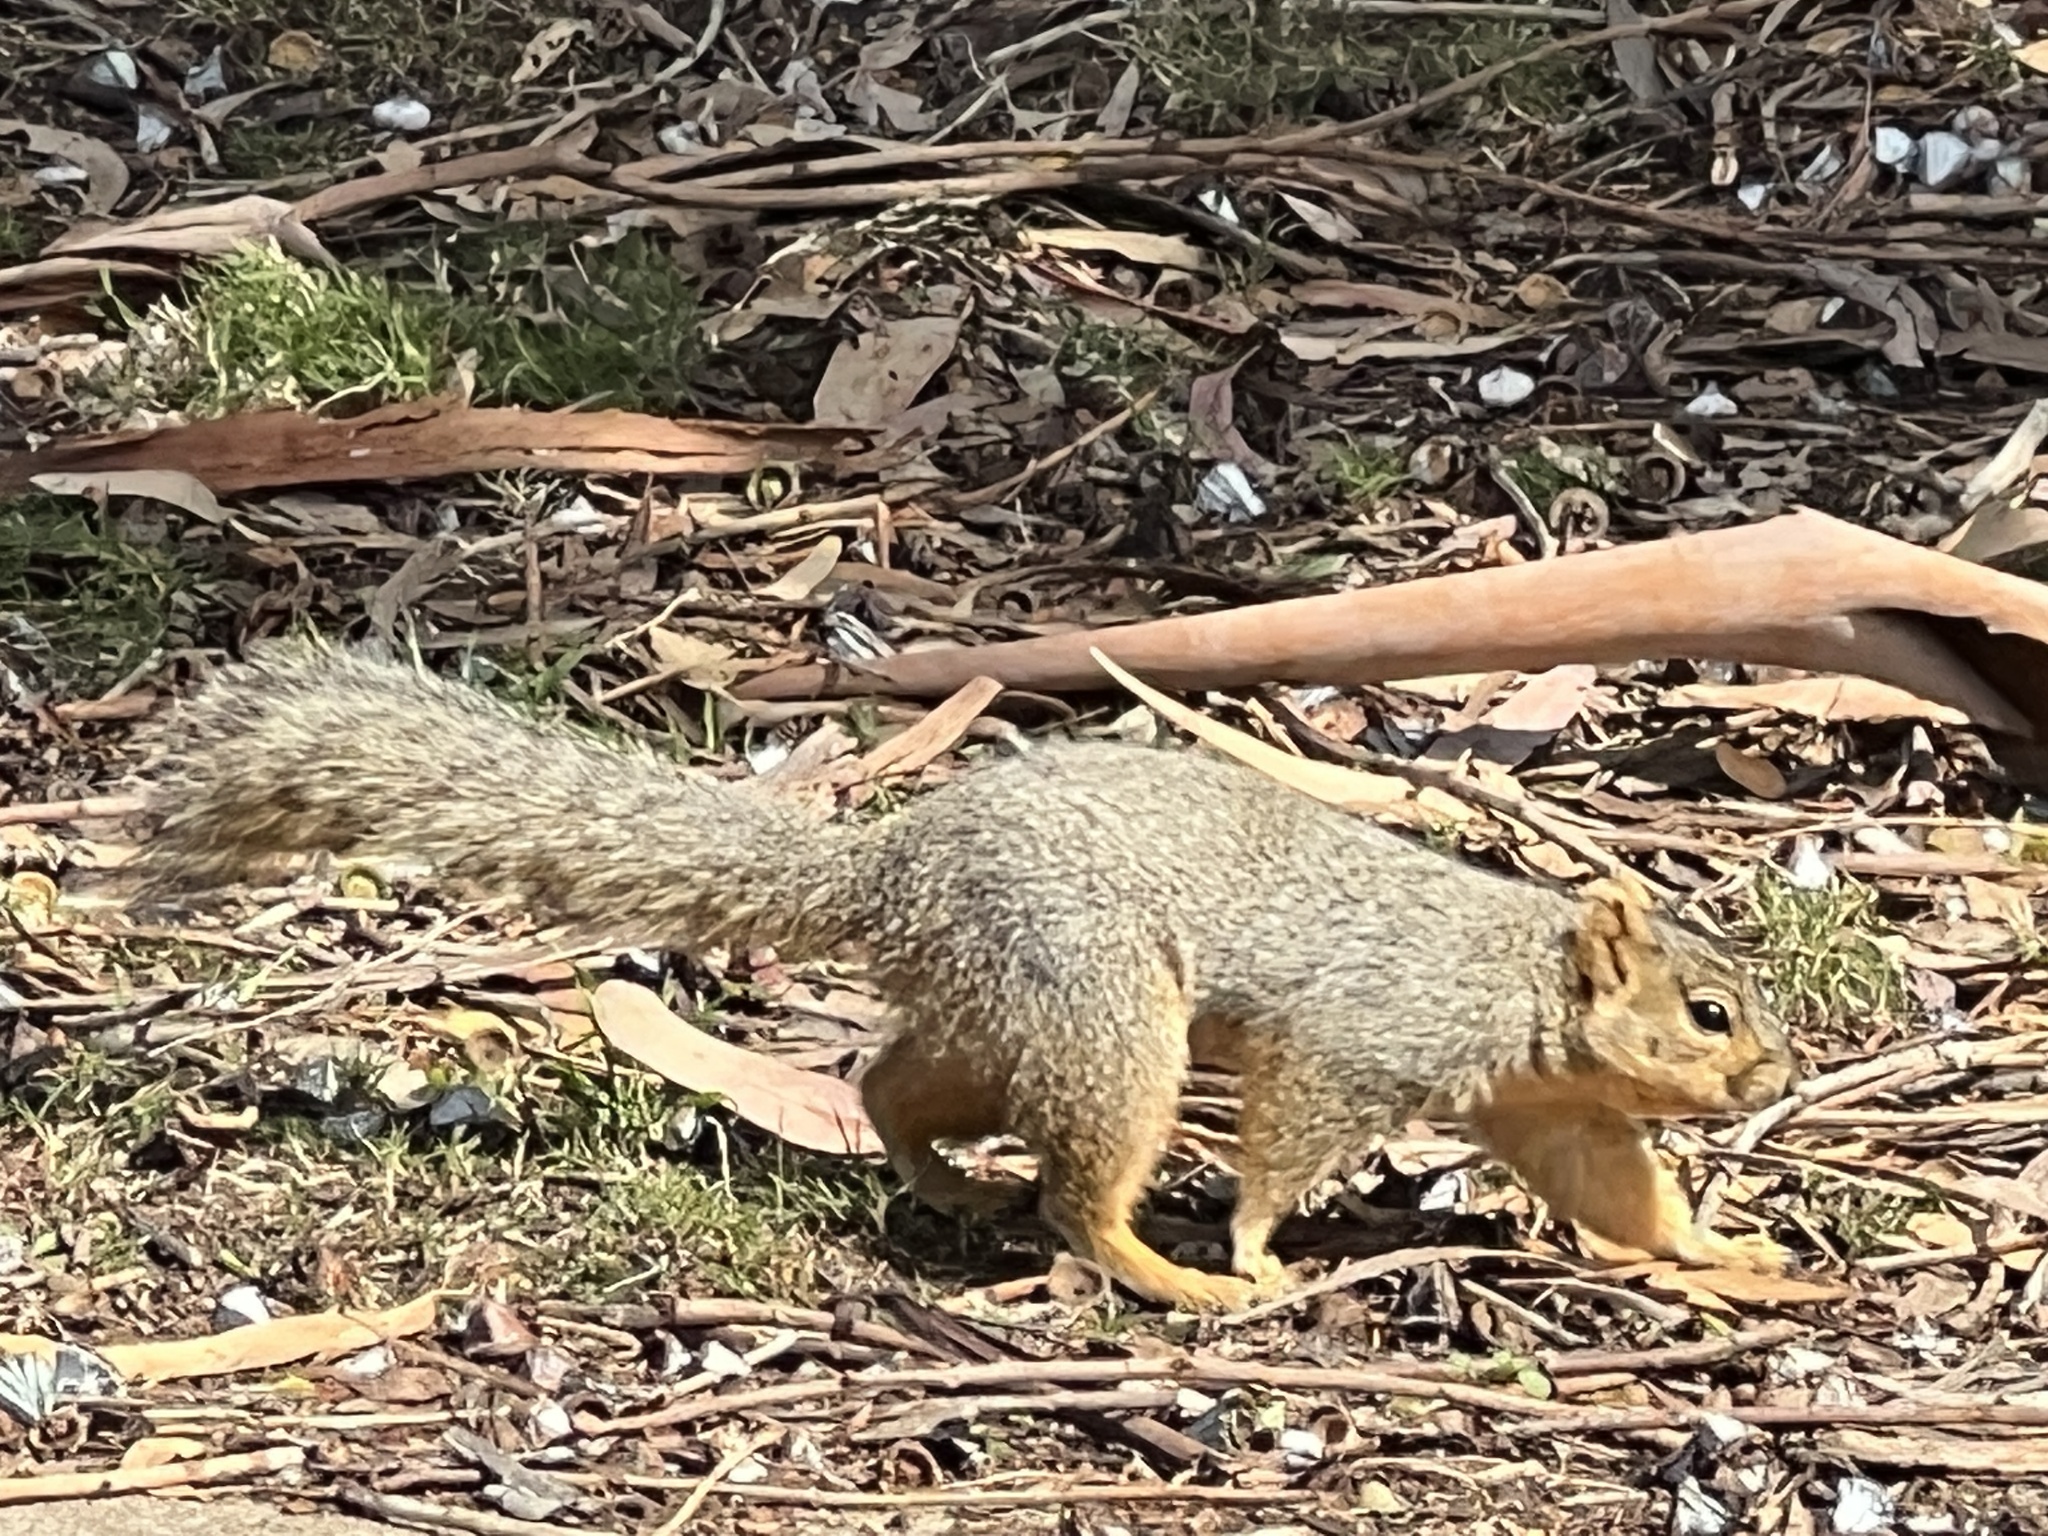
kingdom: Animalia
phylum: Chordata
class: Mammalia
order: Rodentia
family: Sciuridae
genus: Sciurus
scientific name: Sciurus niger
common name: Fox squirrel
